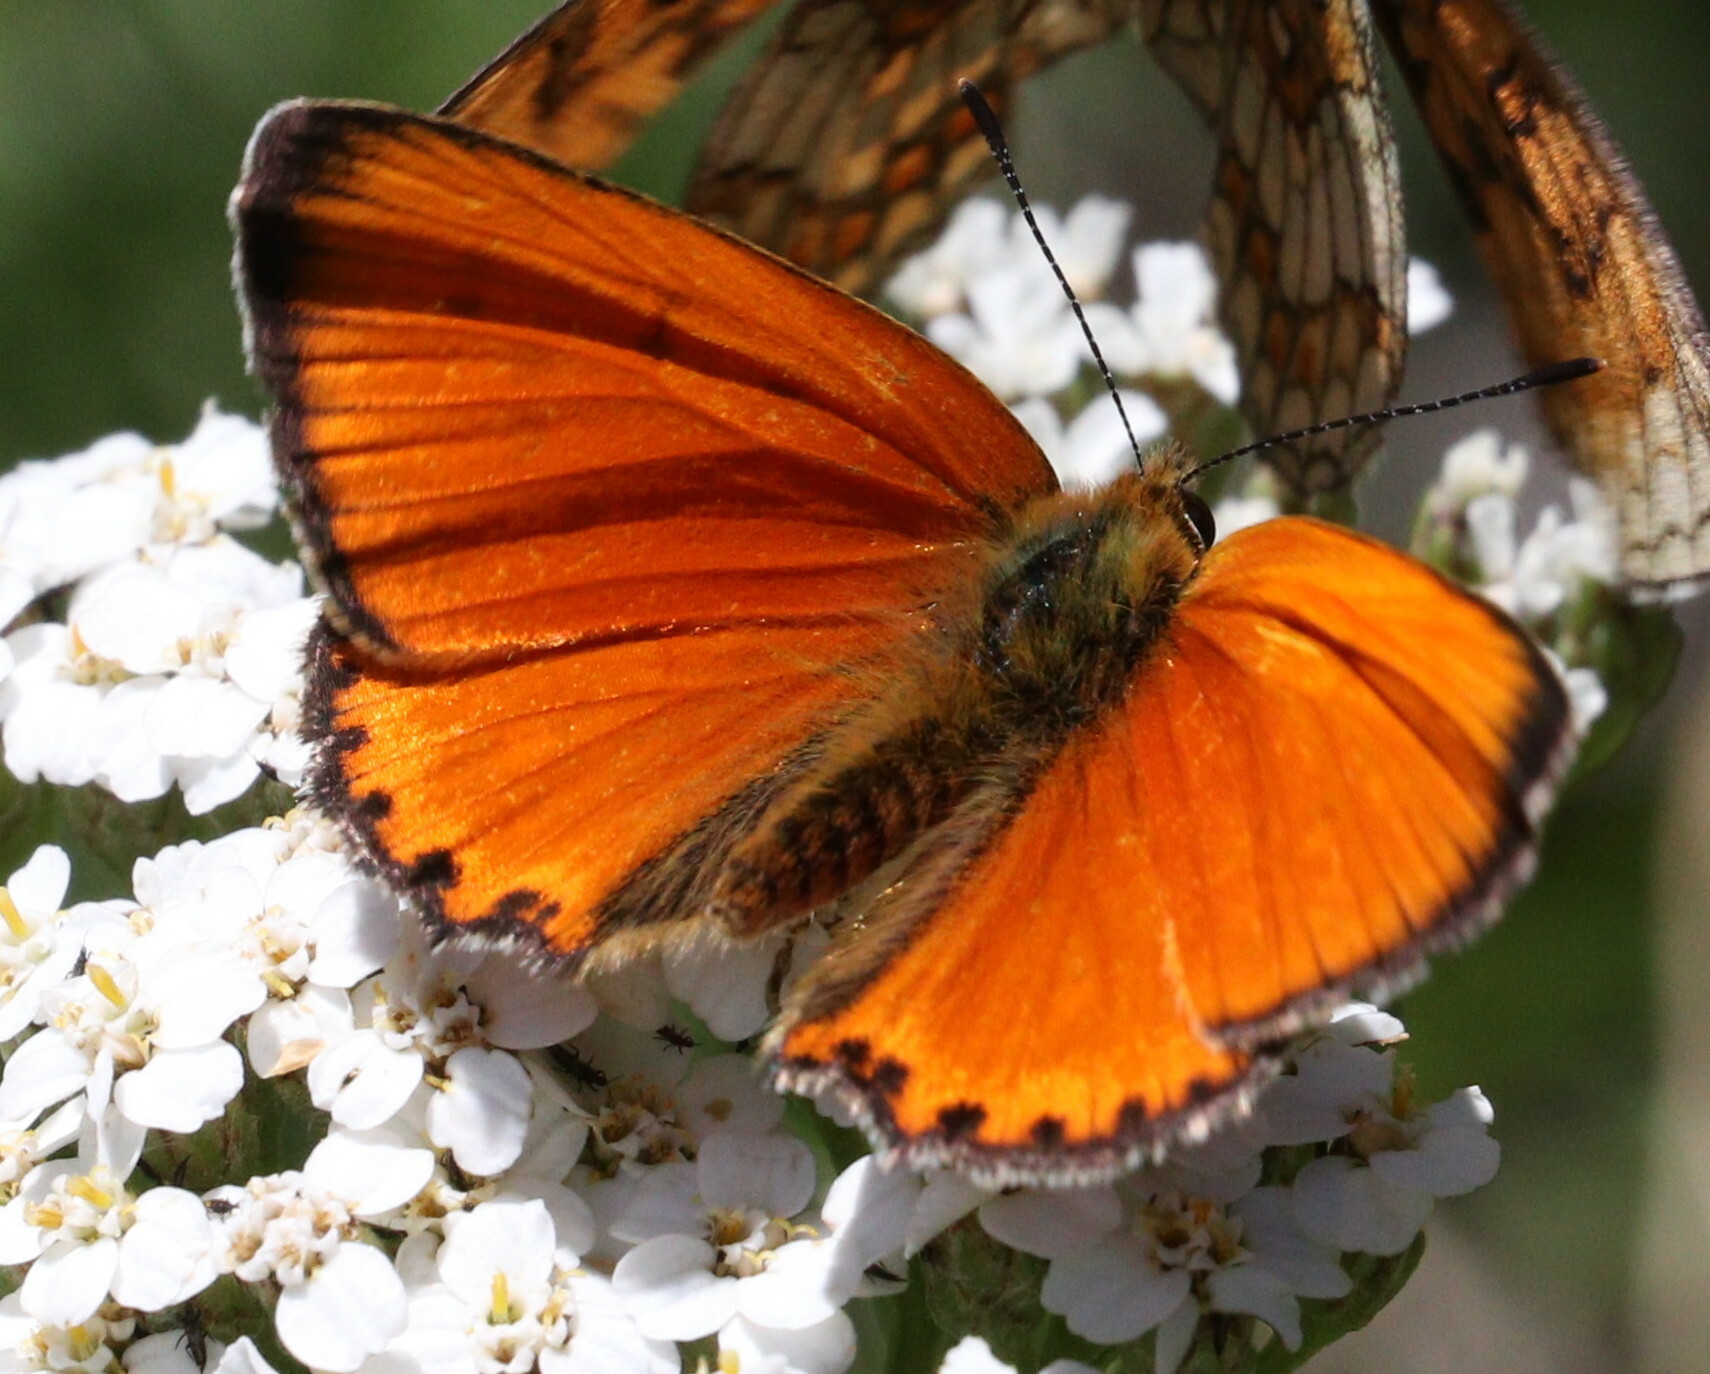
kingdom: Animalia
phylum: Arthropoda
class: Insecta
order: Lepidoptera
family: Lycaenidae
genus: Lycaena
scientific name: Lycaena virgaureae
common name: Scarce copper
